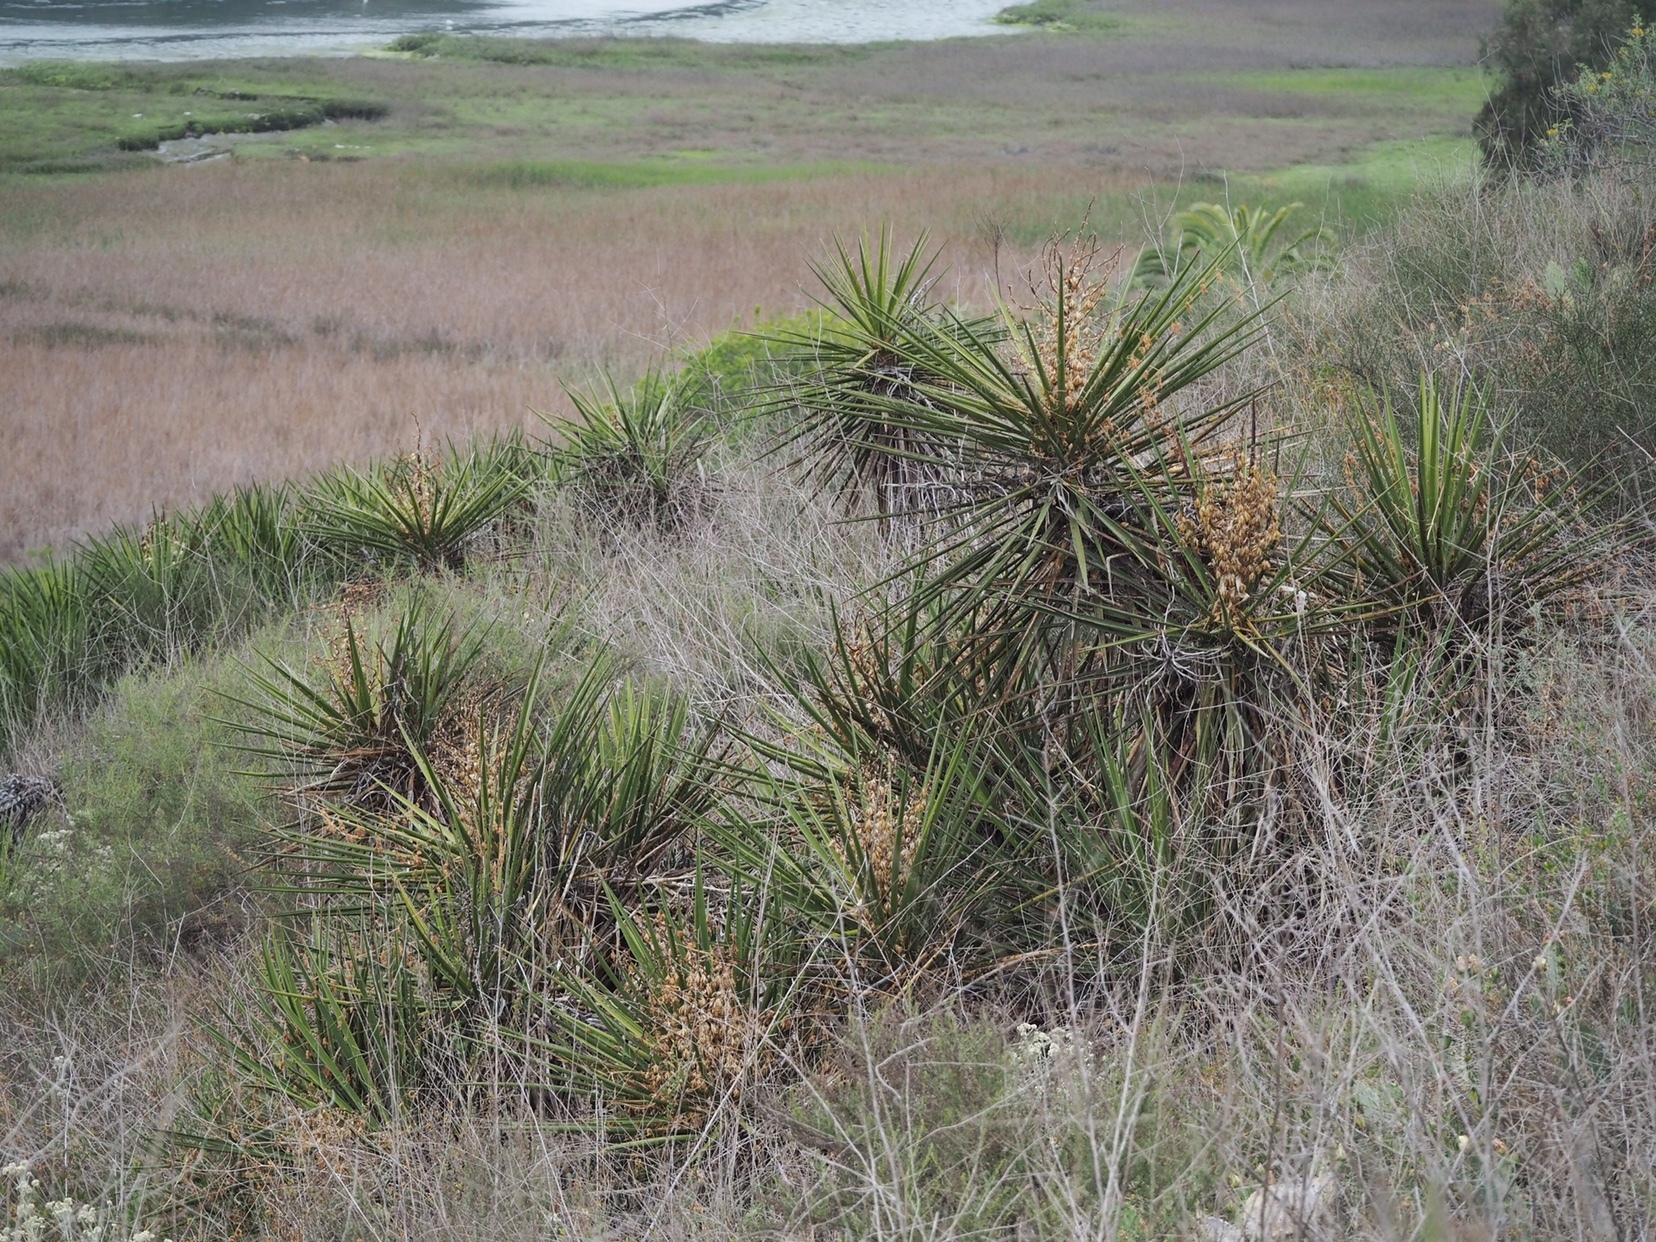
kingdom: Plantae
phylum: Tracheophyta
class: Liliopsida
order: Asparagales
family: Asparagaceae
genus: Yucca
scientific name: Yucca schidigera
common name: Mojave yucca
